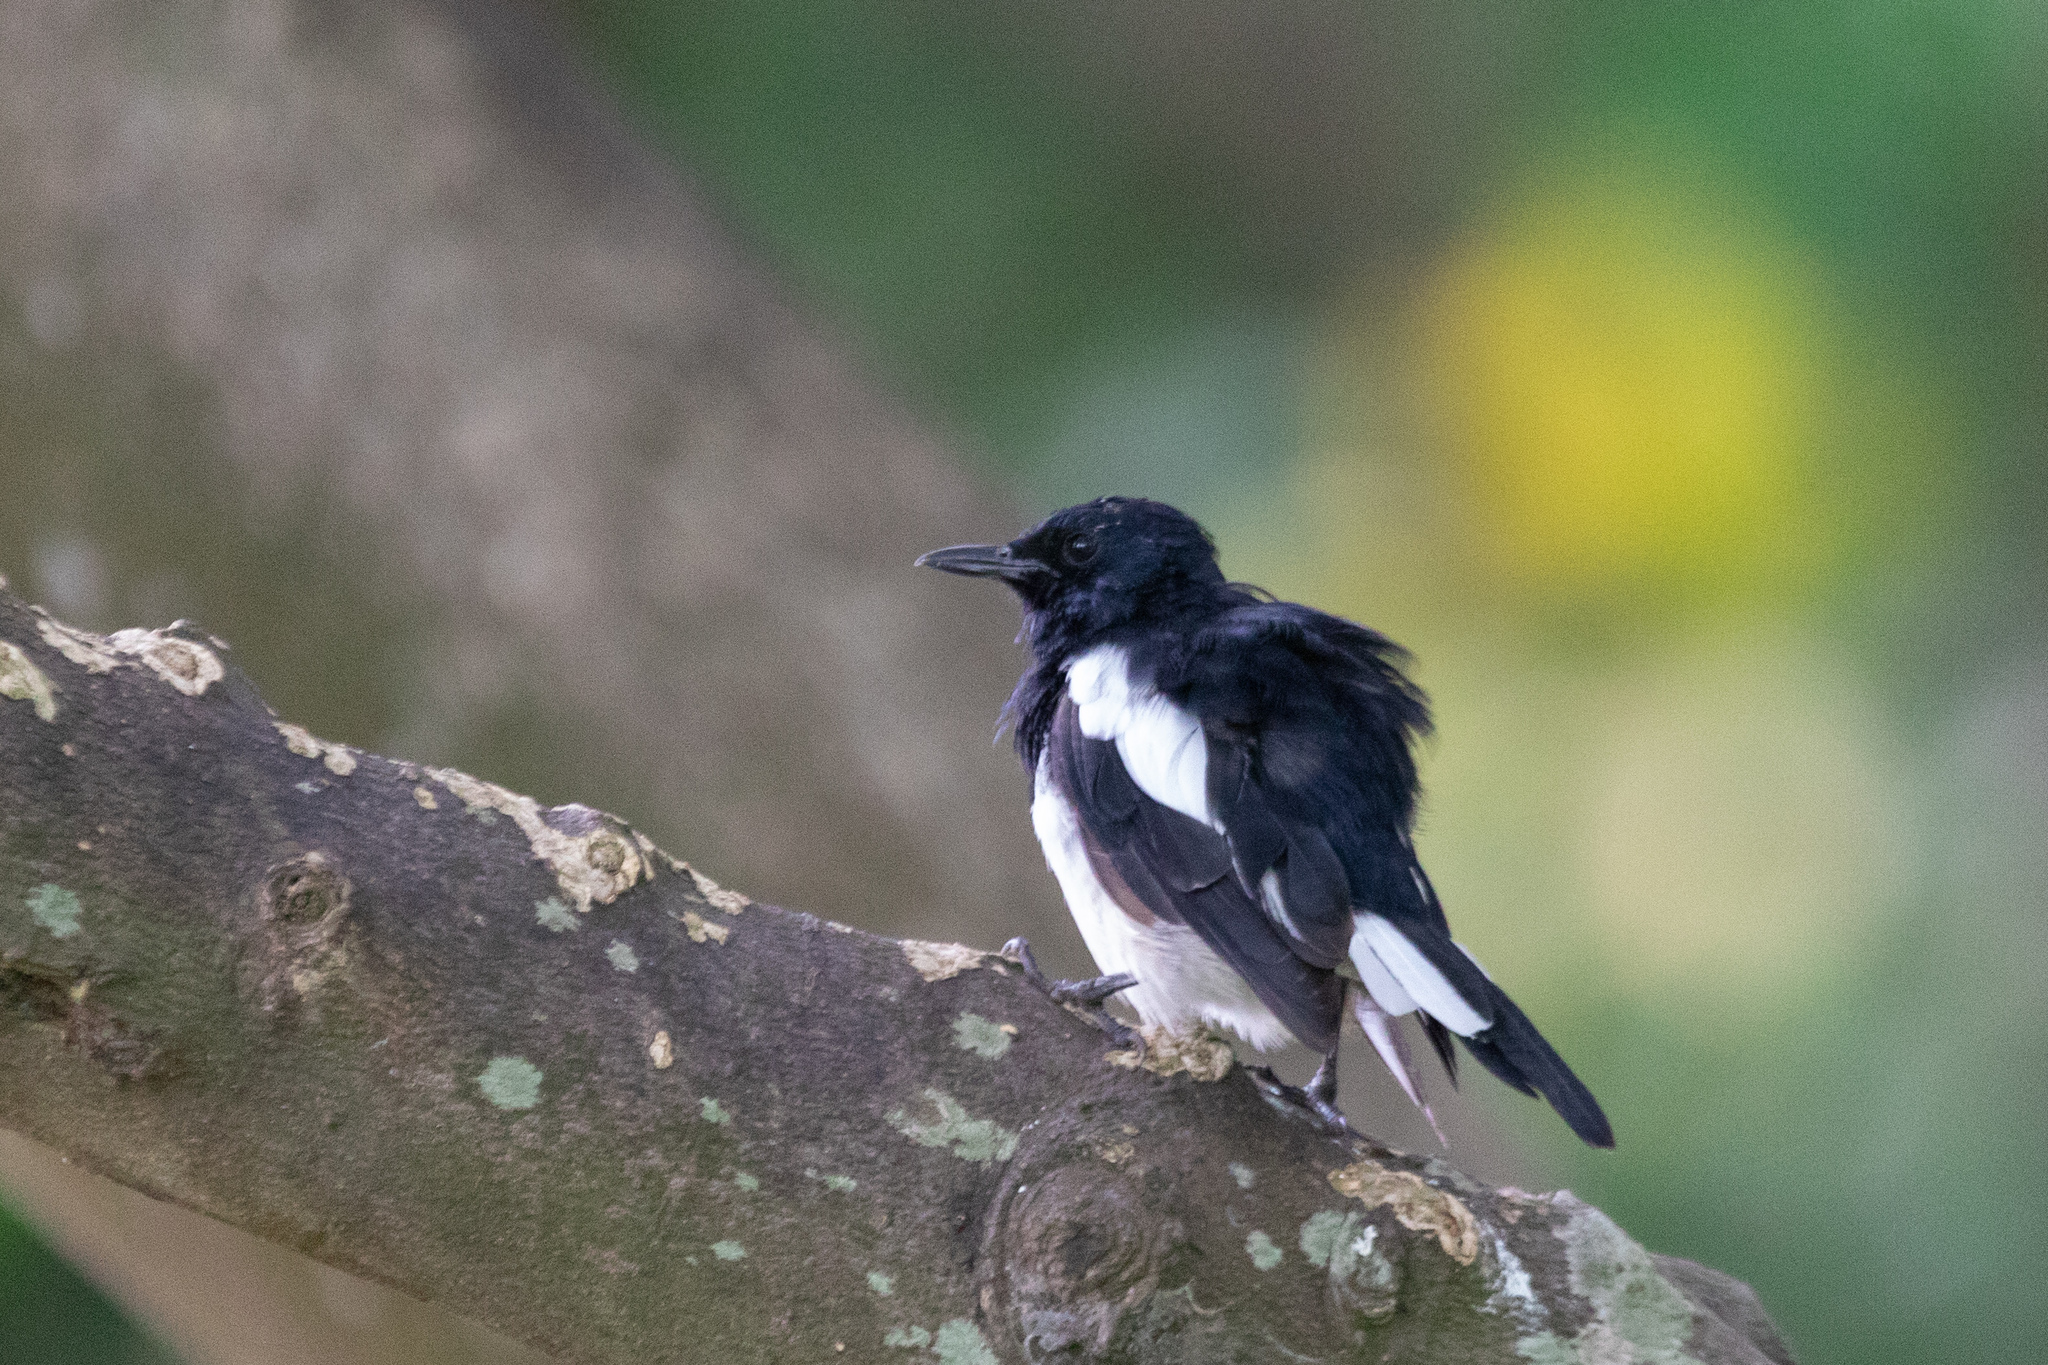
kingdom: Animalia
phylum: Chordata
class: Aves
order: Passeriformes
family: Muscicapidae
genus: Copsychus
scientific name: Copsychus saularis
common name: Oriental magpie-robin
